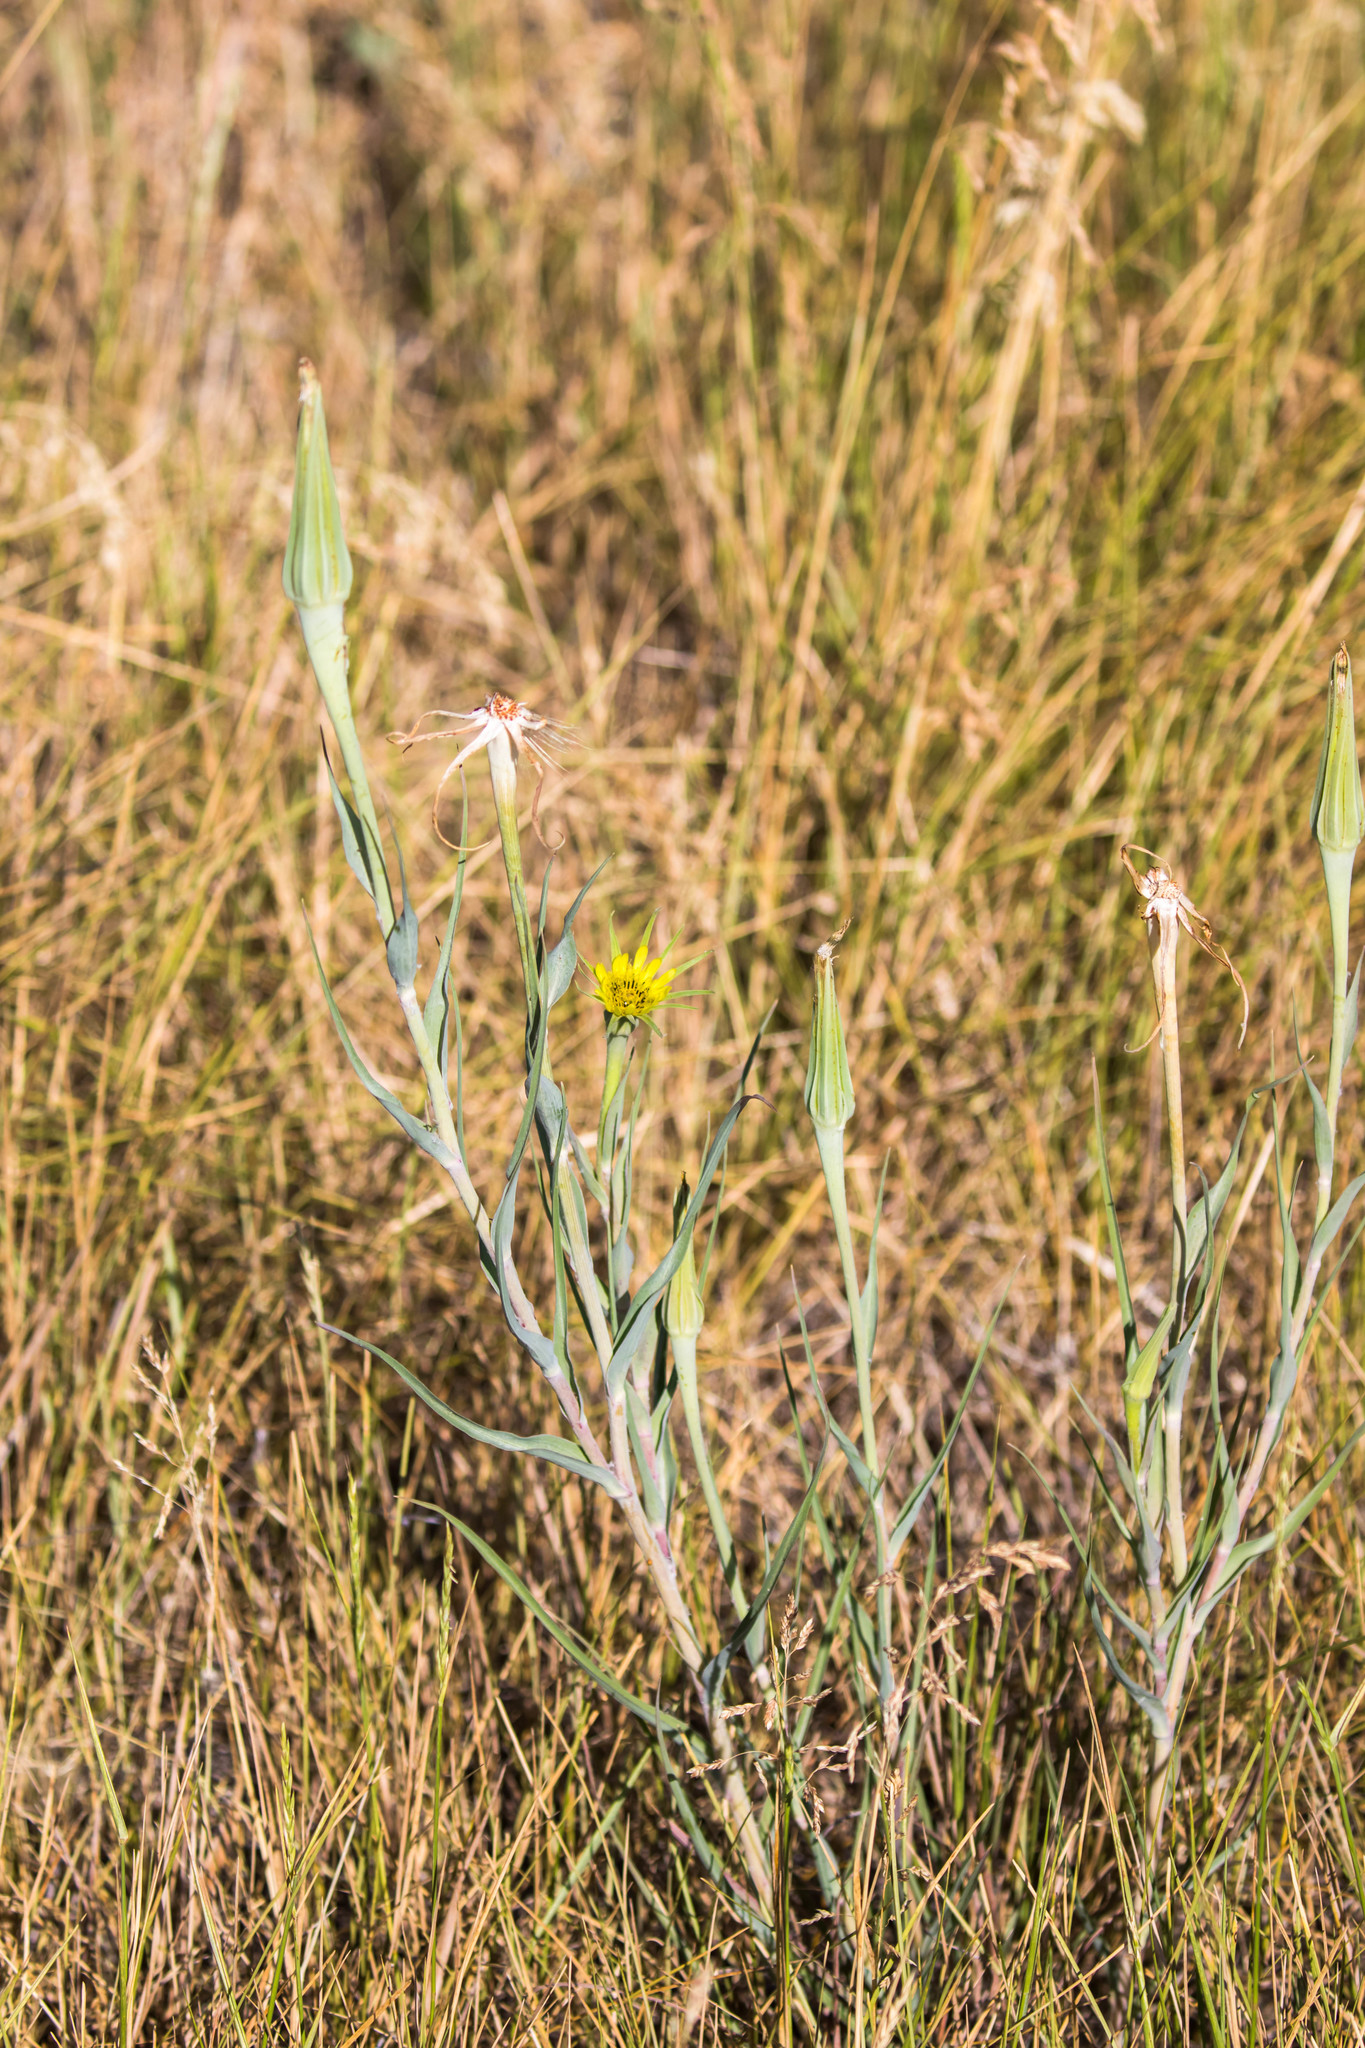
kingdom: Plantae
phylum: Tracheophyta
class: Magnoliopsida
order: Asterales
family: Asteraceae
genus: Tragopogon
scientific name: Tragopogon dubius
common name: Yellow salsify
